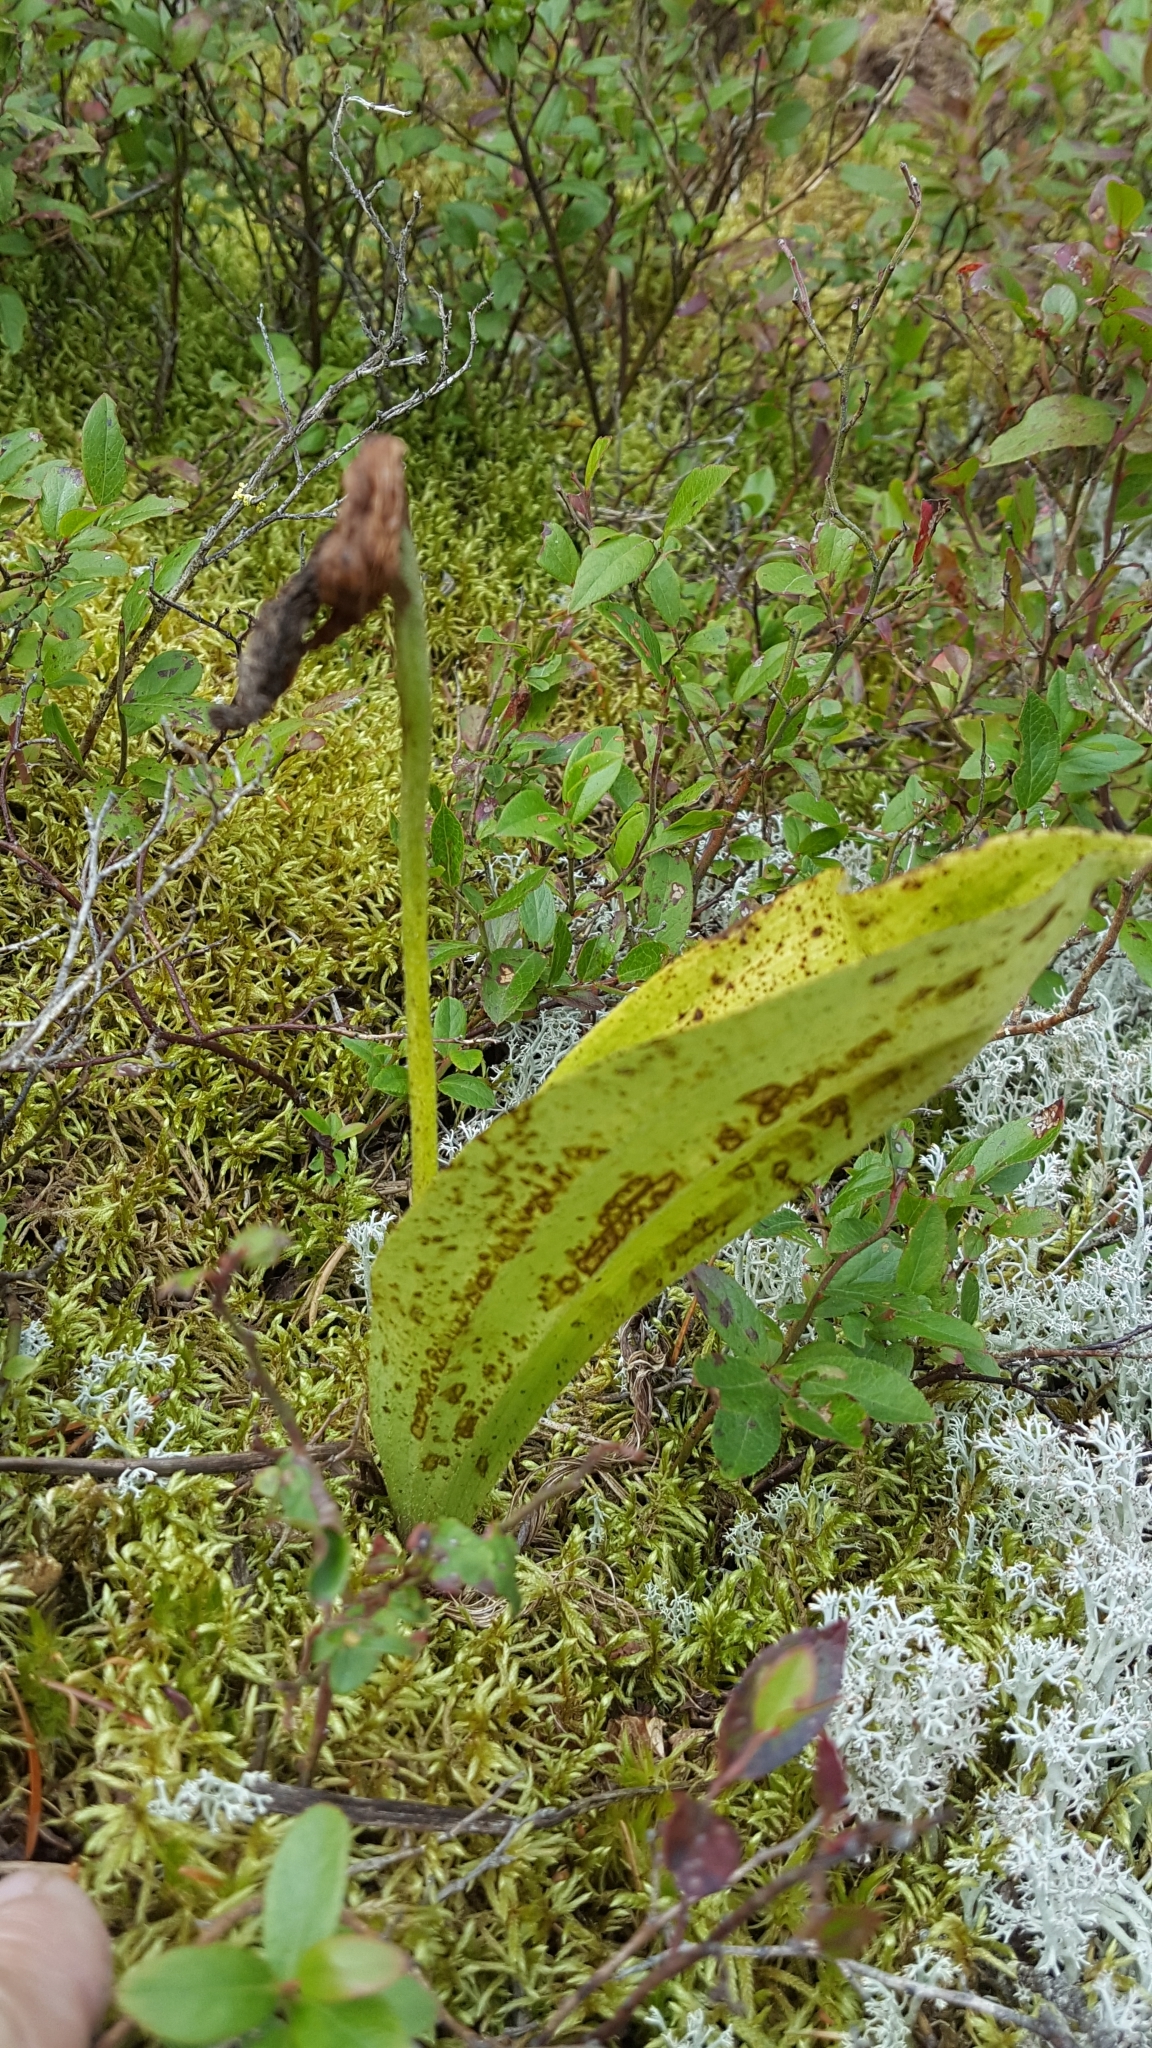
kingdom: Plantae
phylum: Tracheophyta
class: Liliopsida
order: Asparagales
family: Orchidaceae
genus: Cypripedium
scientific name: Cypripedium acaule
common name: Pink lady's-slipper
